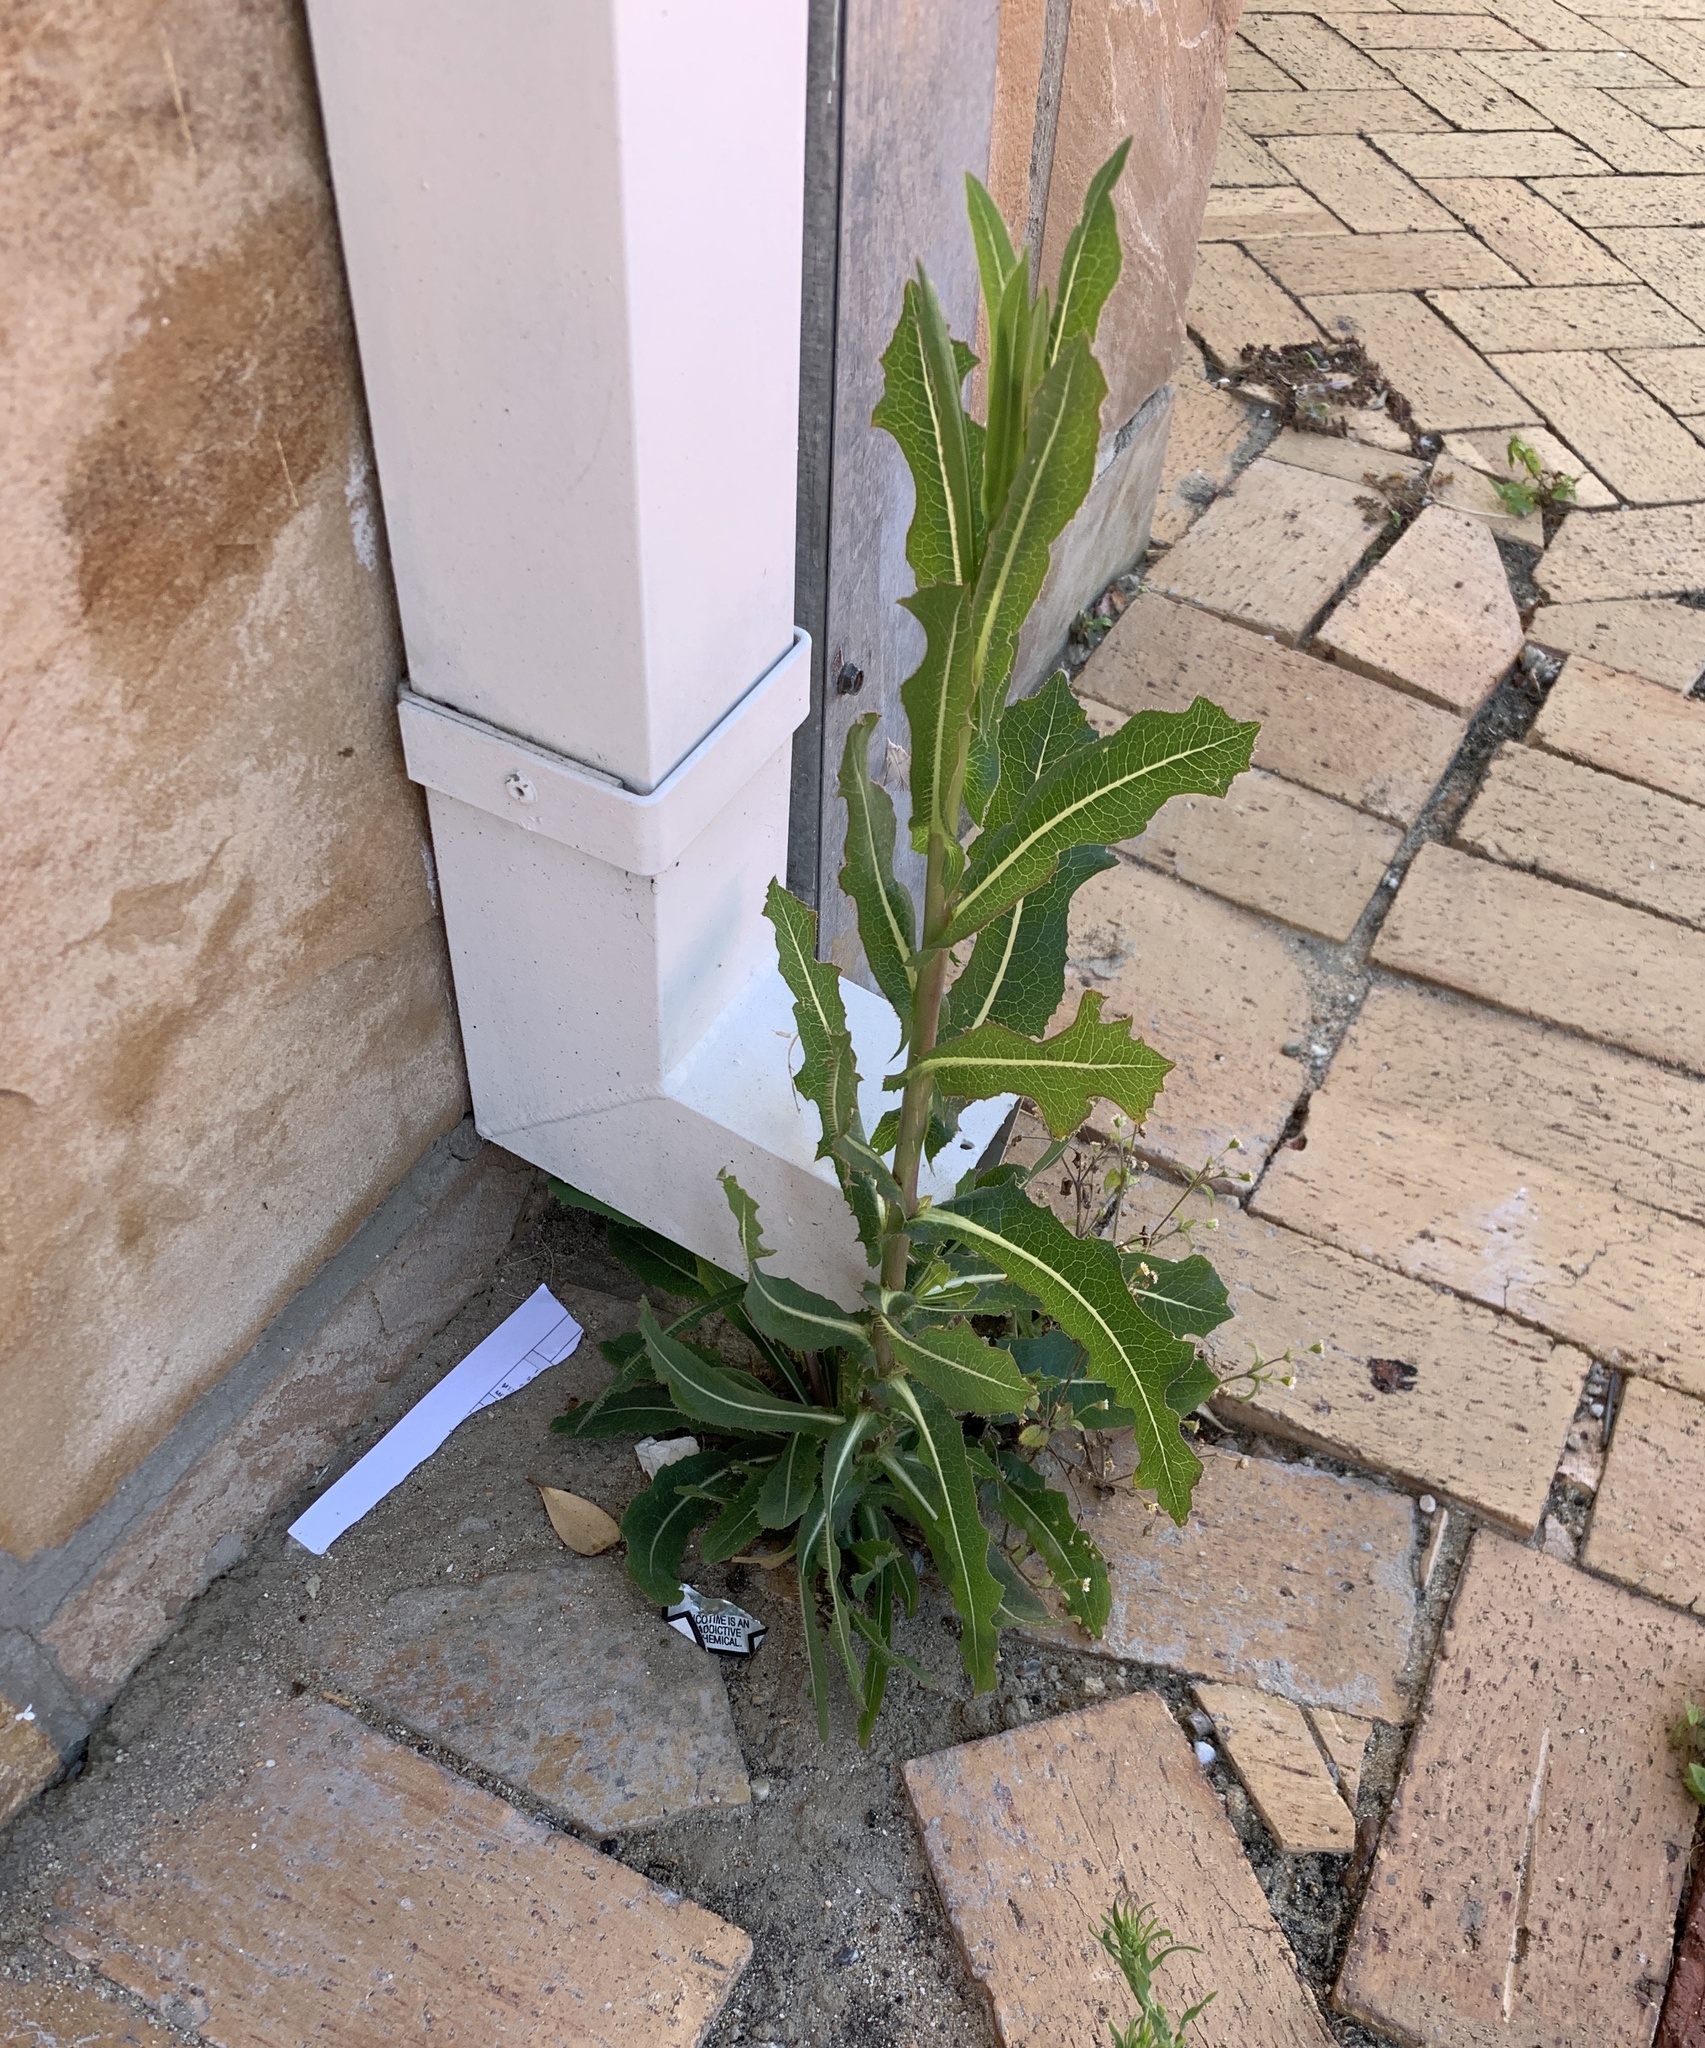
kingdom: Plantae
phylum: Tracheophyta
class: Magnoliopsida
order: Asterales
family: Asteraceae
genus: Lactuca
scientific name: Lactuca serriola
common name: Prickly lettuce
